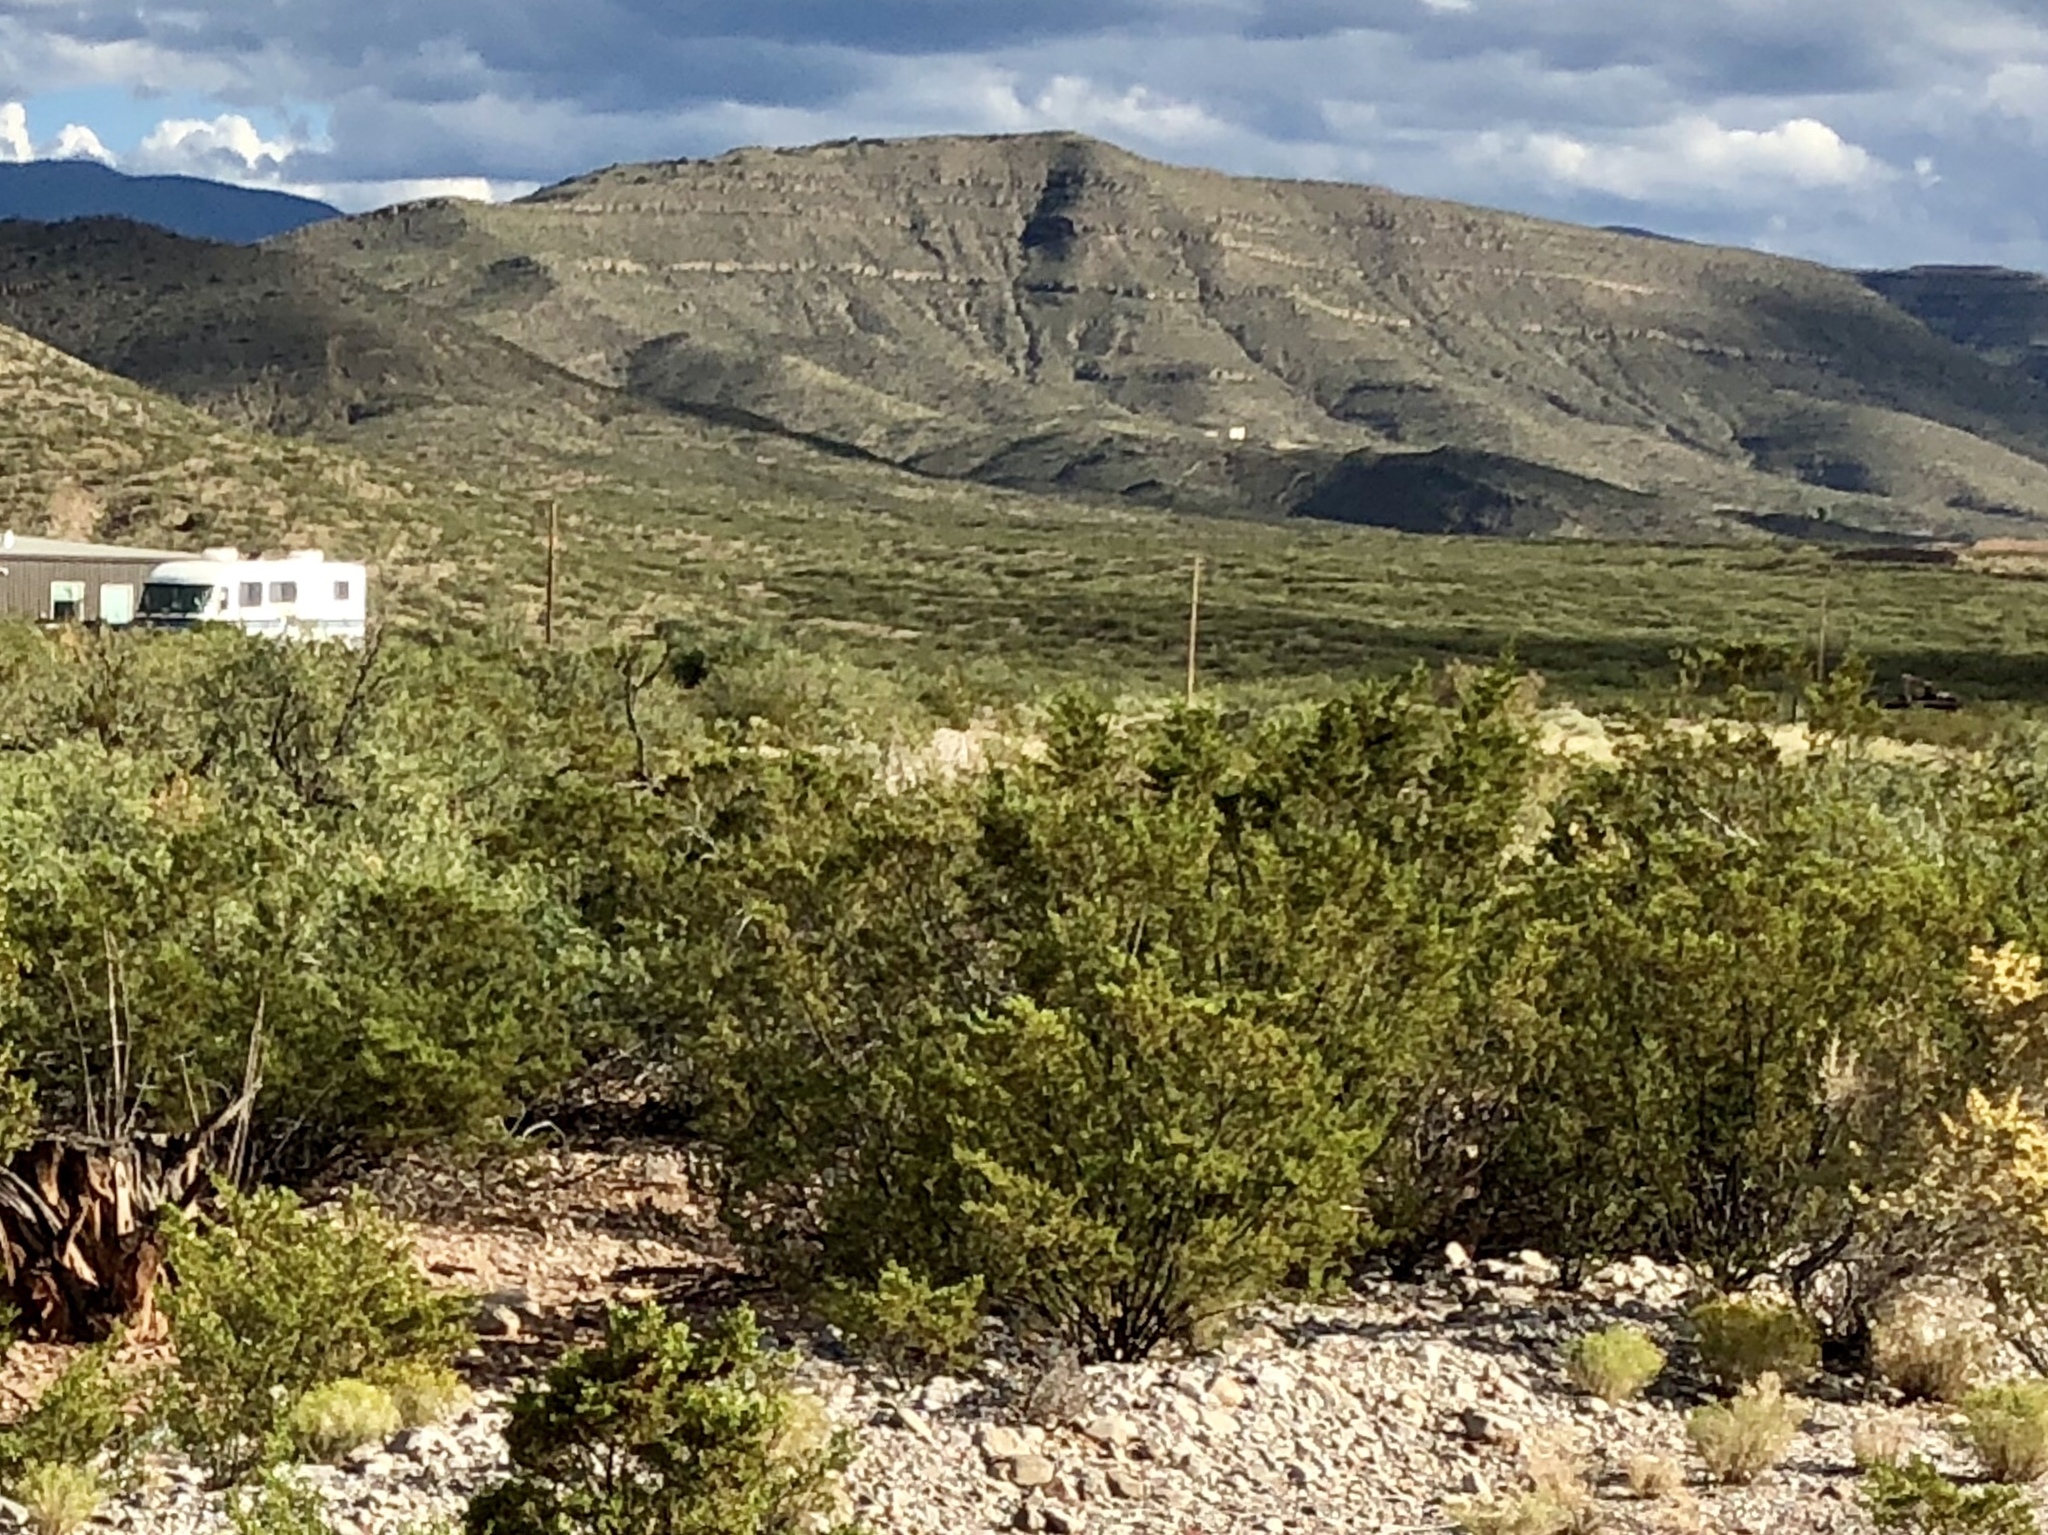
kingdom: Plantae
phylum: Tracheophyta
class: Magnoliopsida
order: Zygophyllales
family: Zygophyllaceae
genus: Larrea
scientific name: Larrea tridentata
